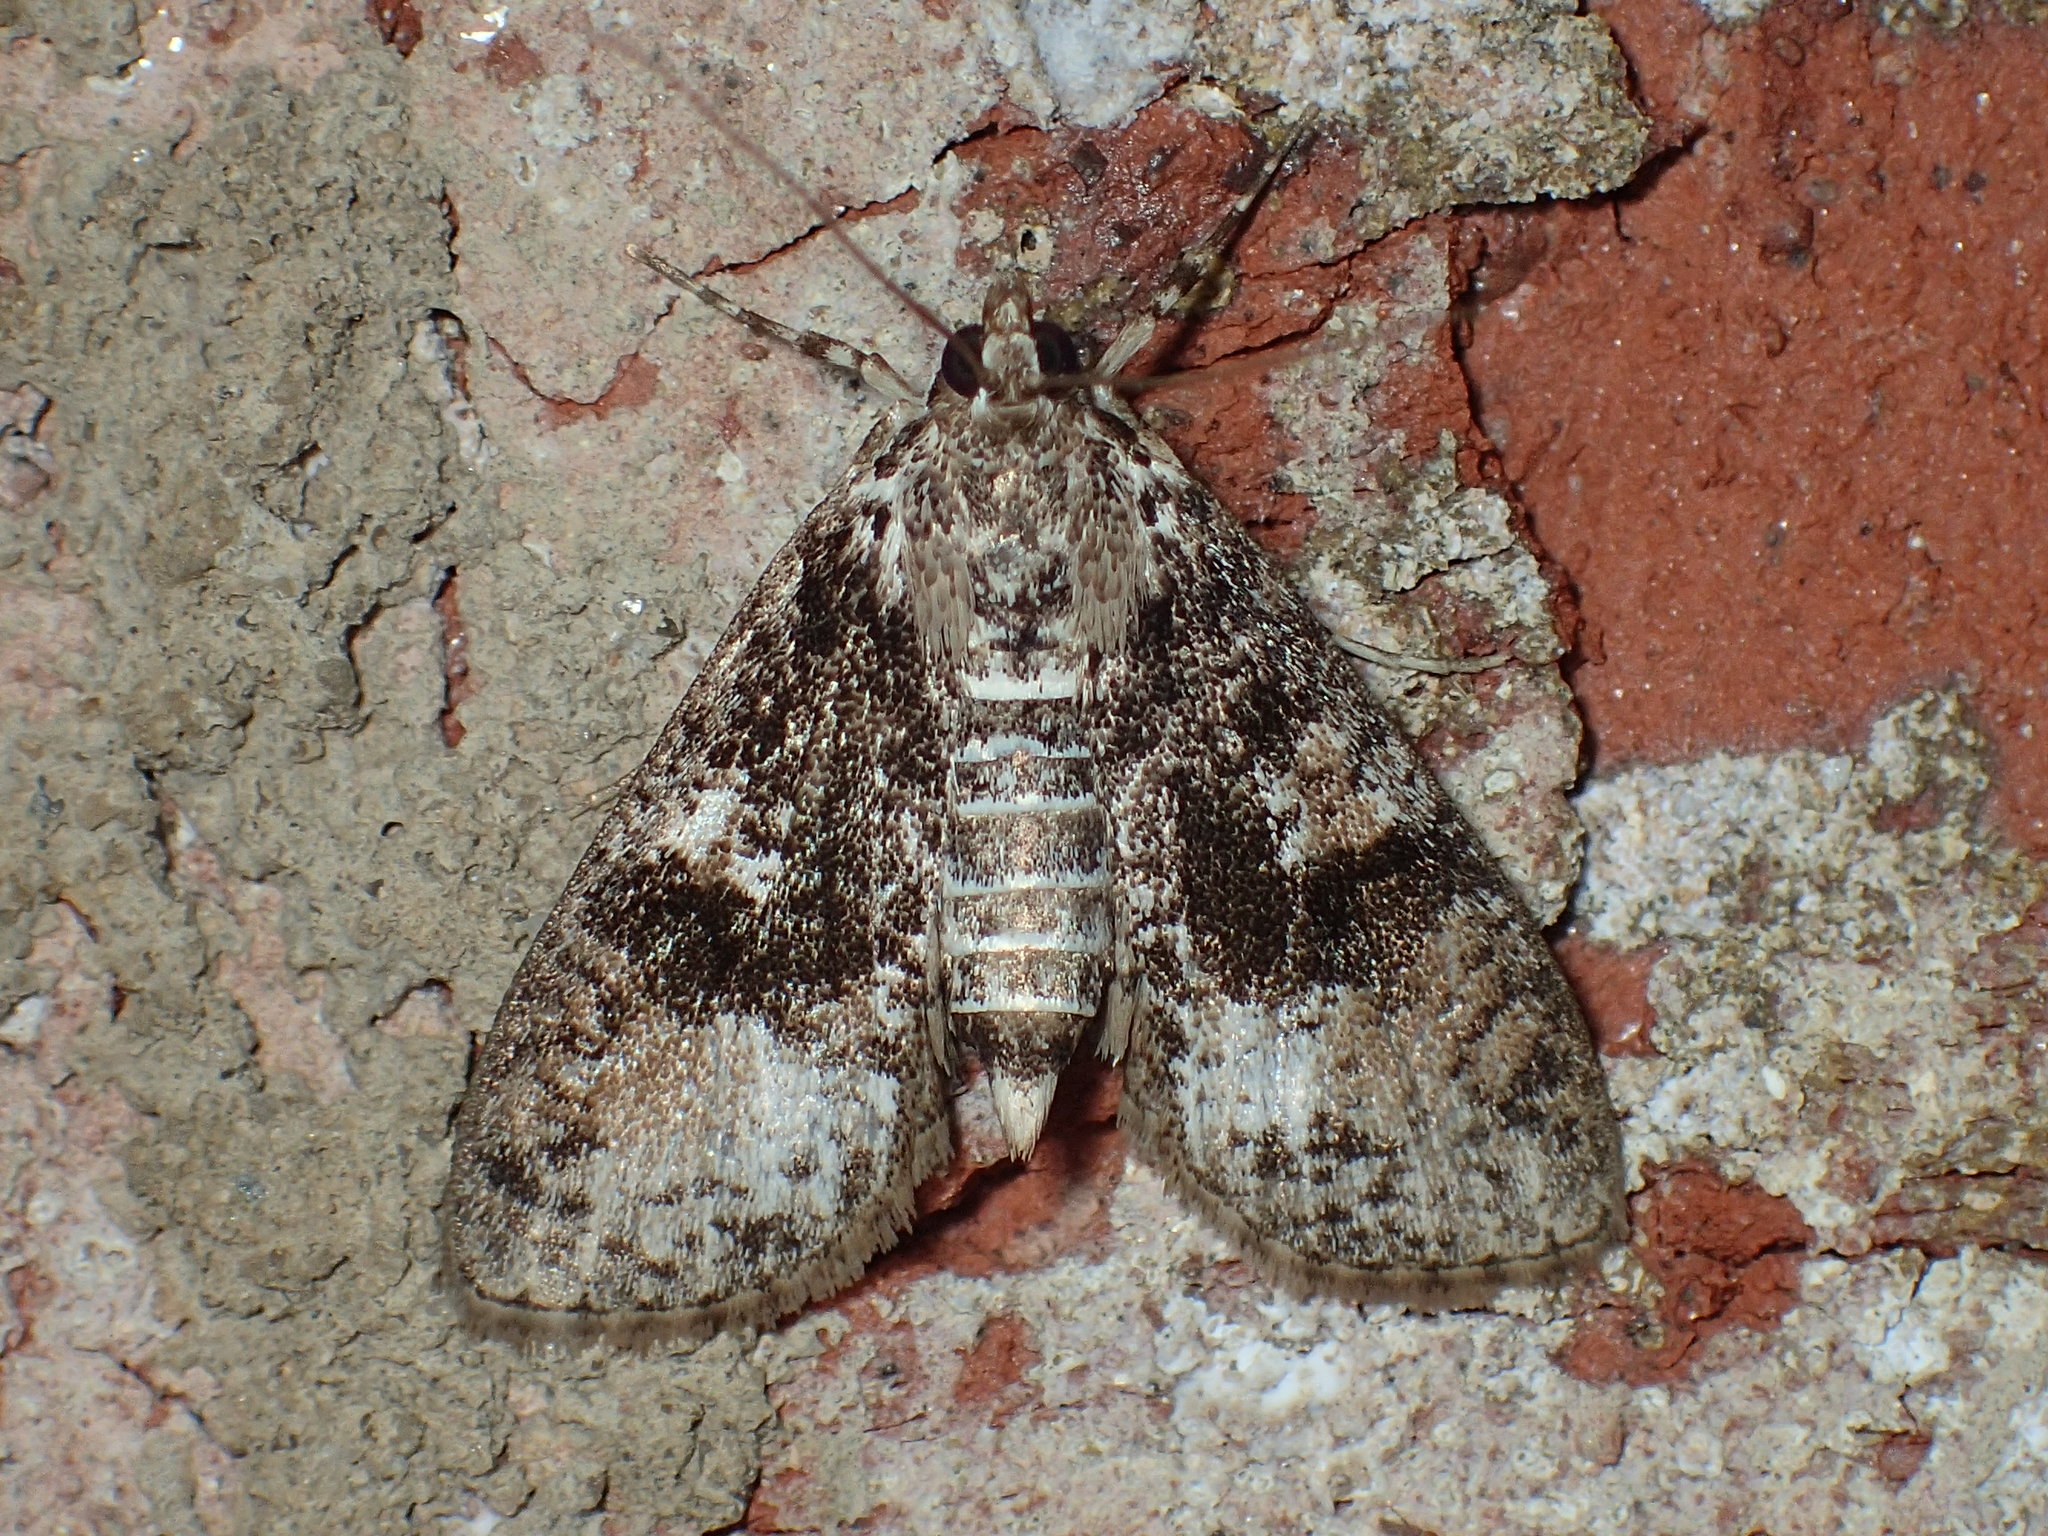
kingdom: Animalia
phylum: Arthropoda
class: Insecta
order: Lepidoptera
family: Crambidae
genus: Palpita
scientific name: Palpita magniferalis
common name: Splendid palpita moth
